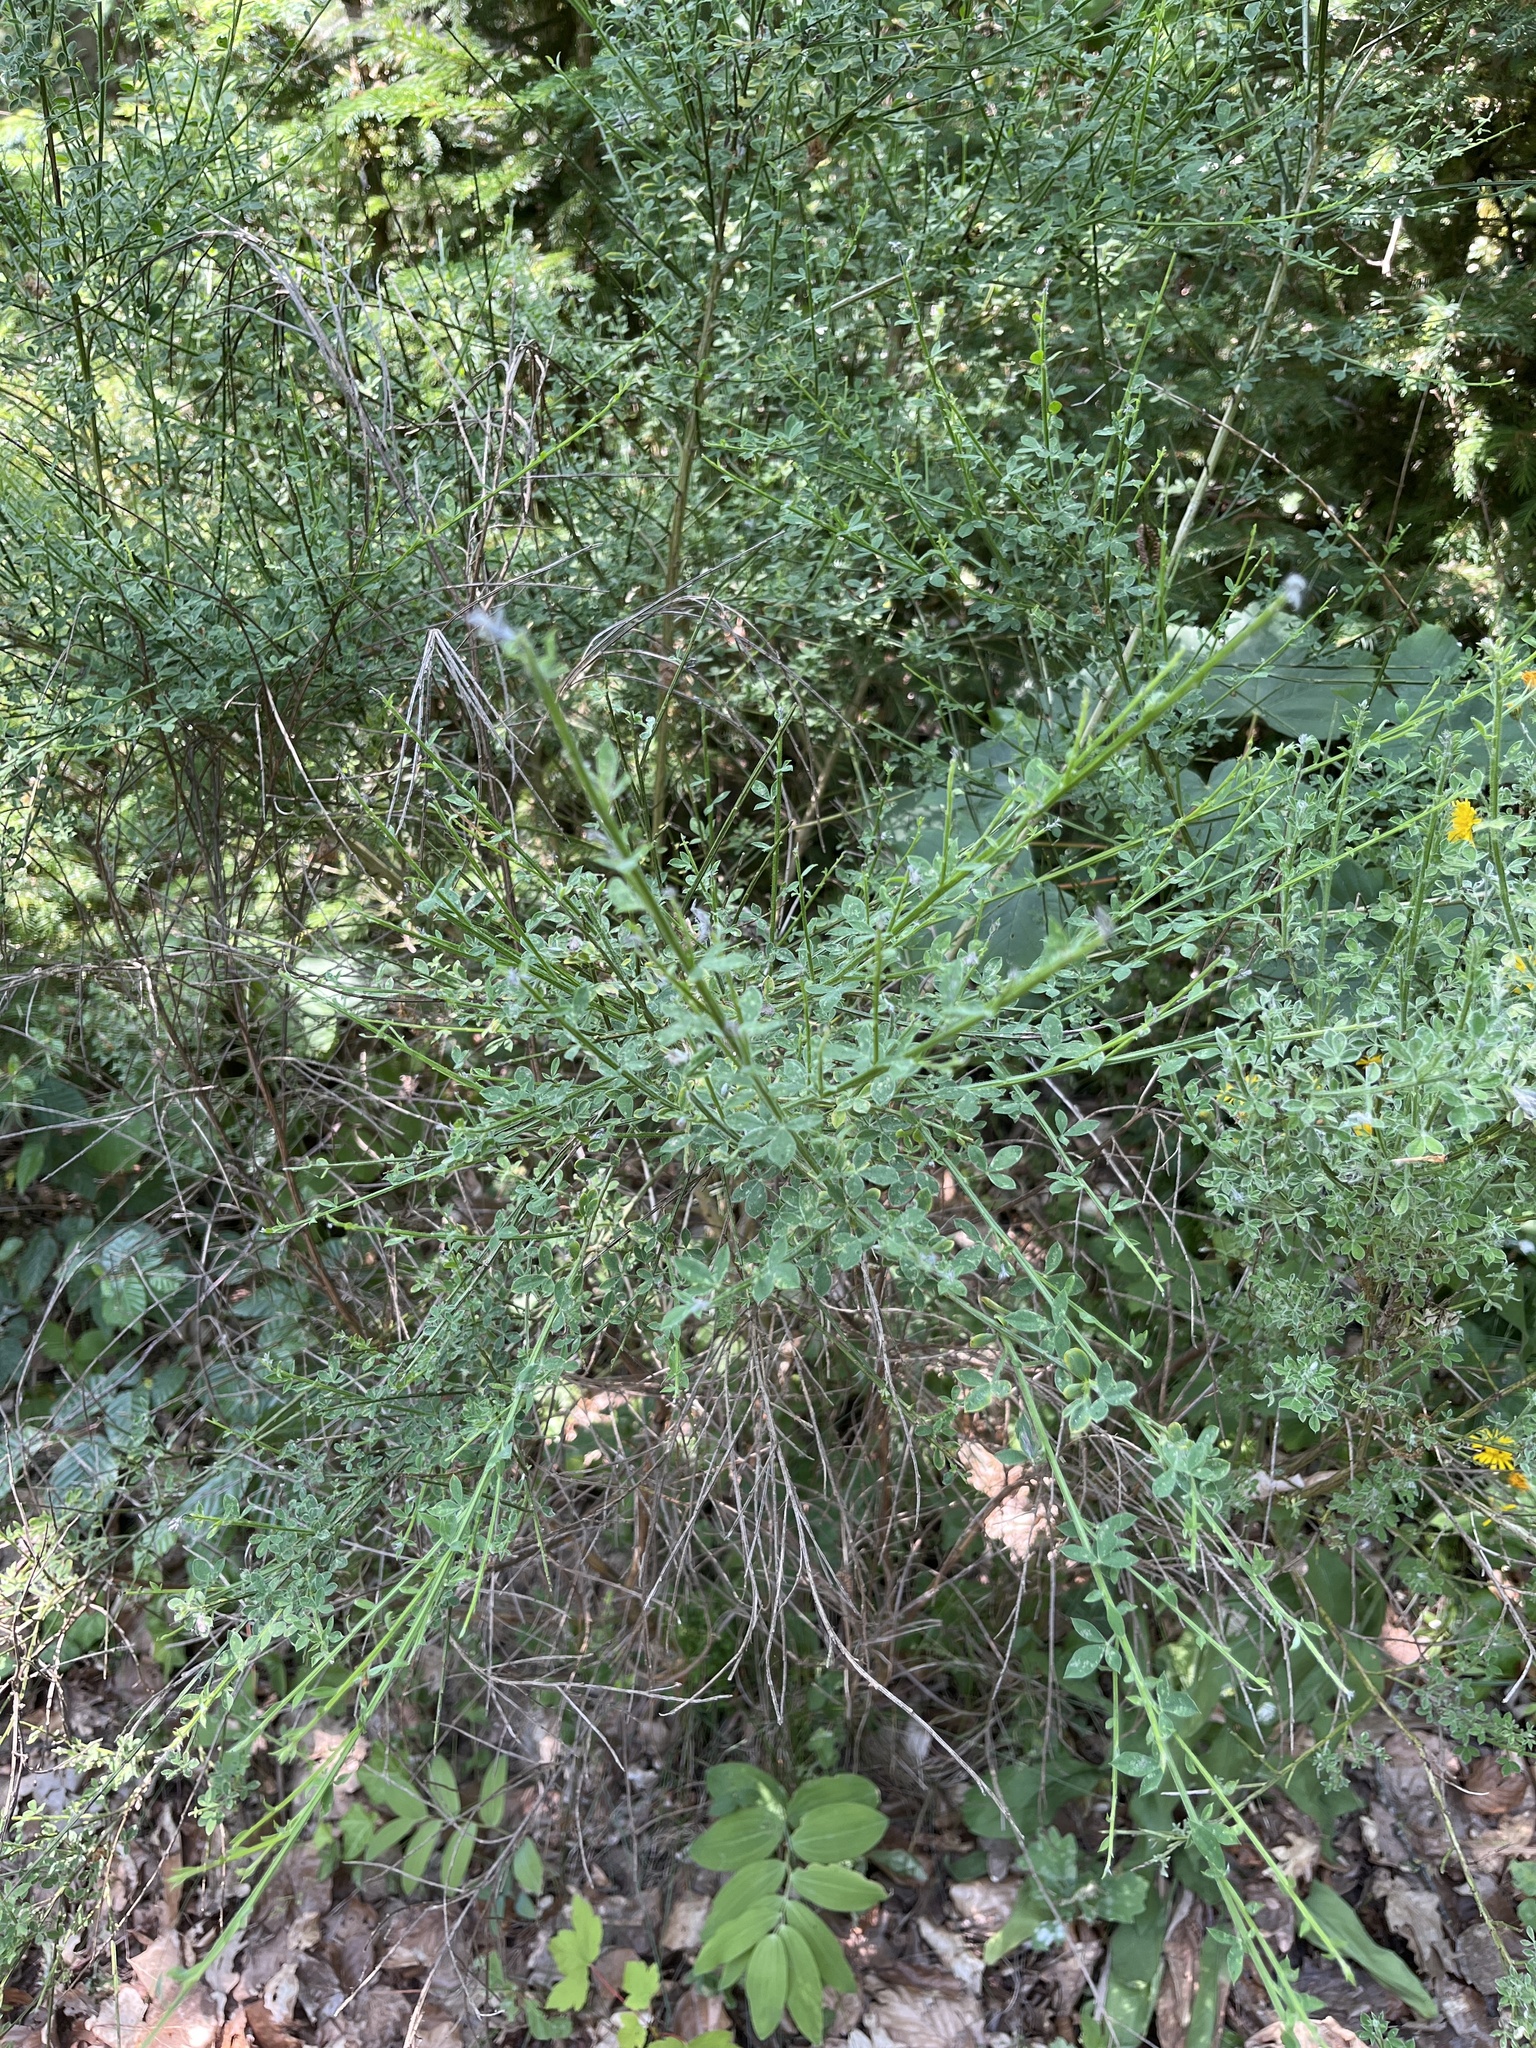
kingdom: Plantae
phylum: Tracheophyta
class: Magnoliopsida
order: Fabales
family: Fabaceae
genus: Cytisus
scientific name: Cytisus scoparius
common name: Scotch broom
